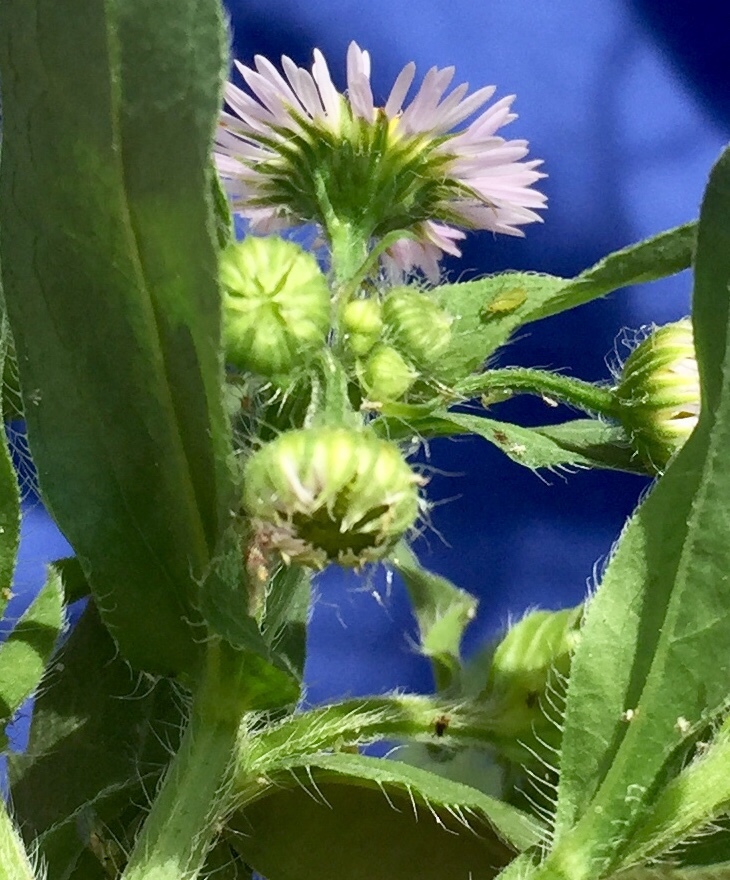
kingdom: Plantae
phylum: Tracheophyta
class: Magnoliopsida
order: Asterales
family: Asteraceae
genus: Erigeron
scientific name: Erigeron annuus
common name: Tall fleabane
